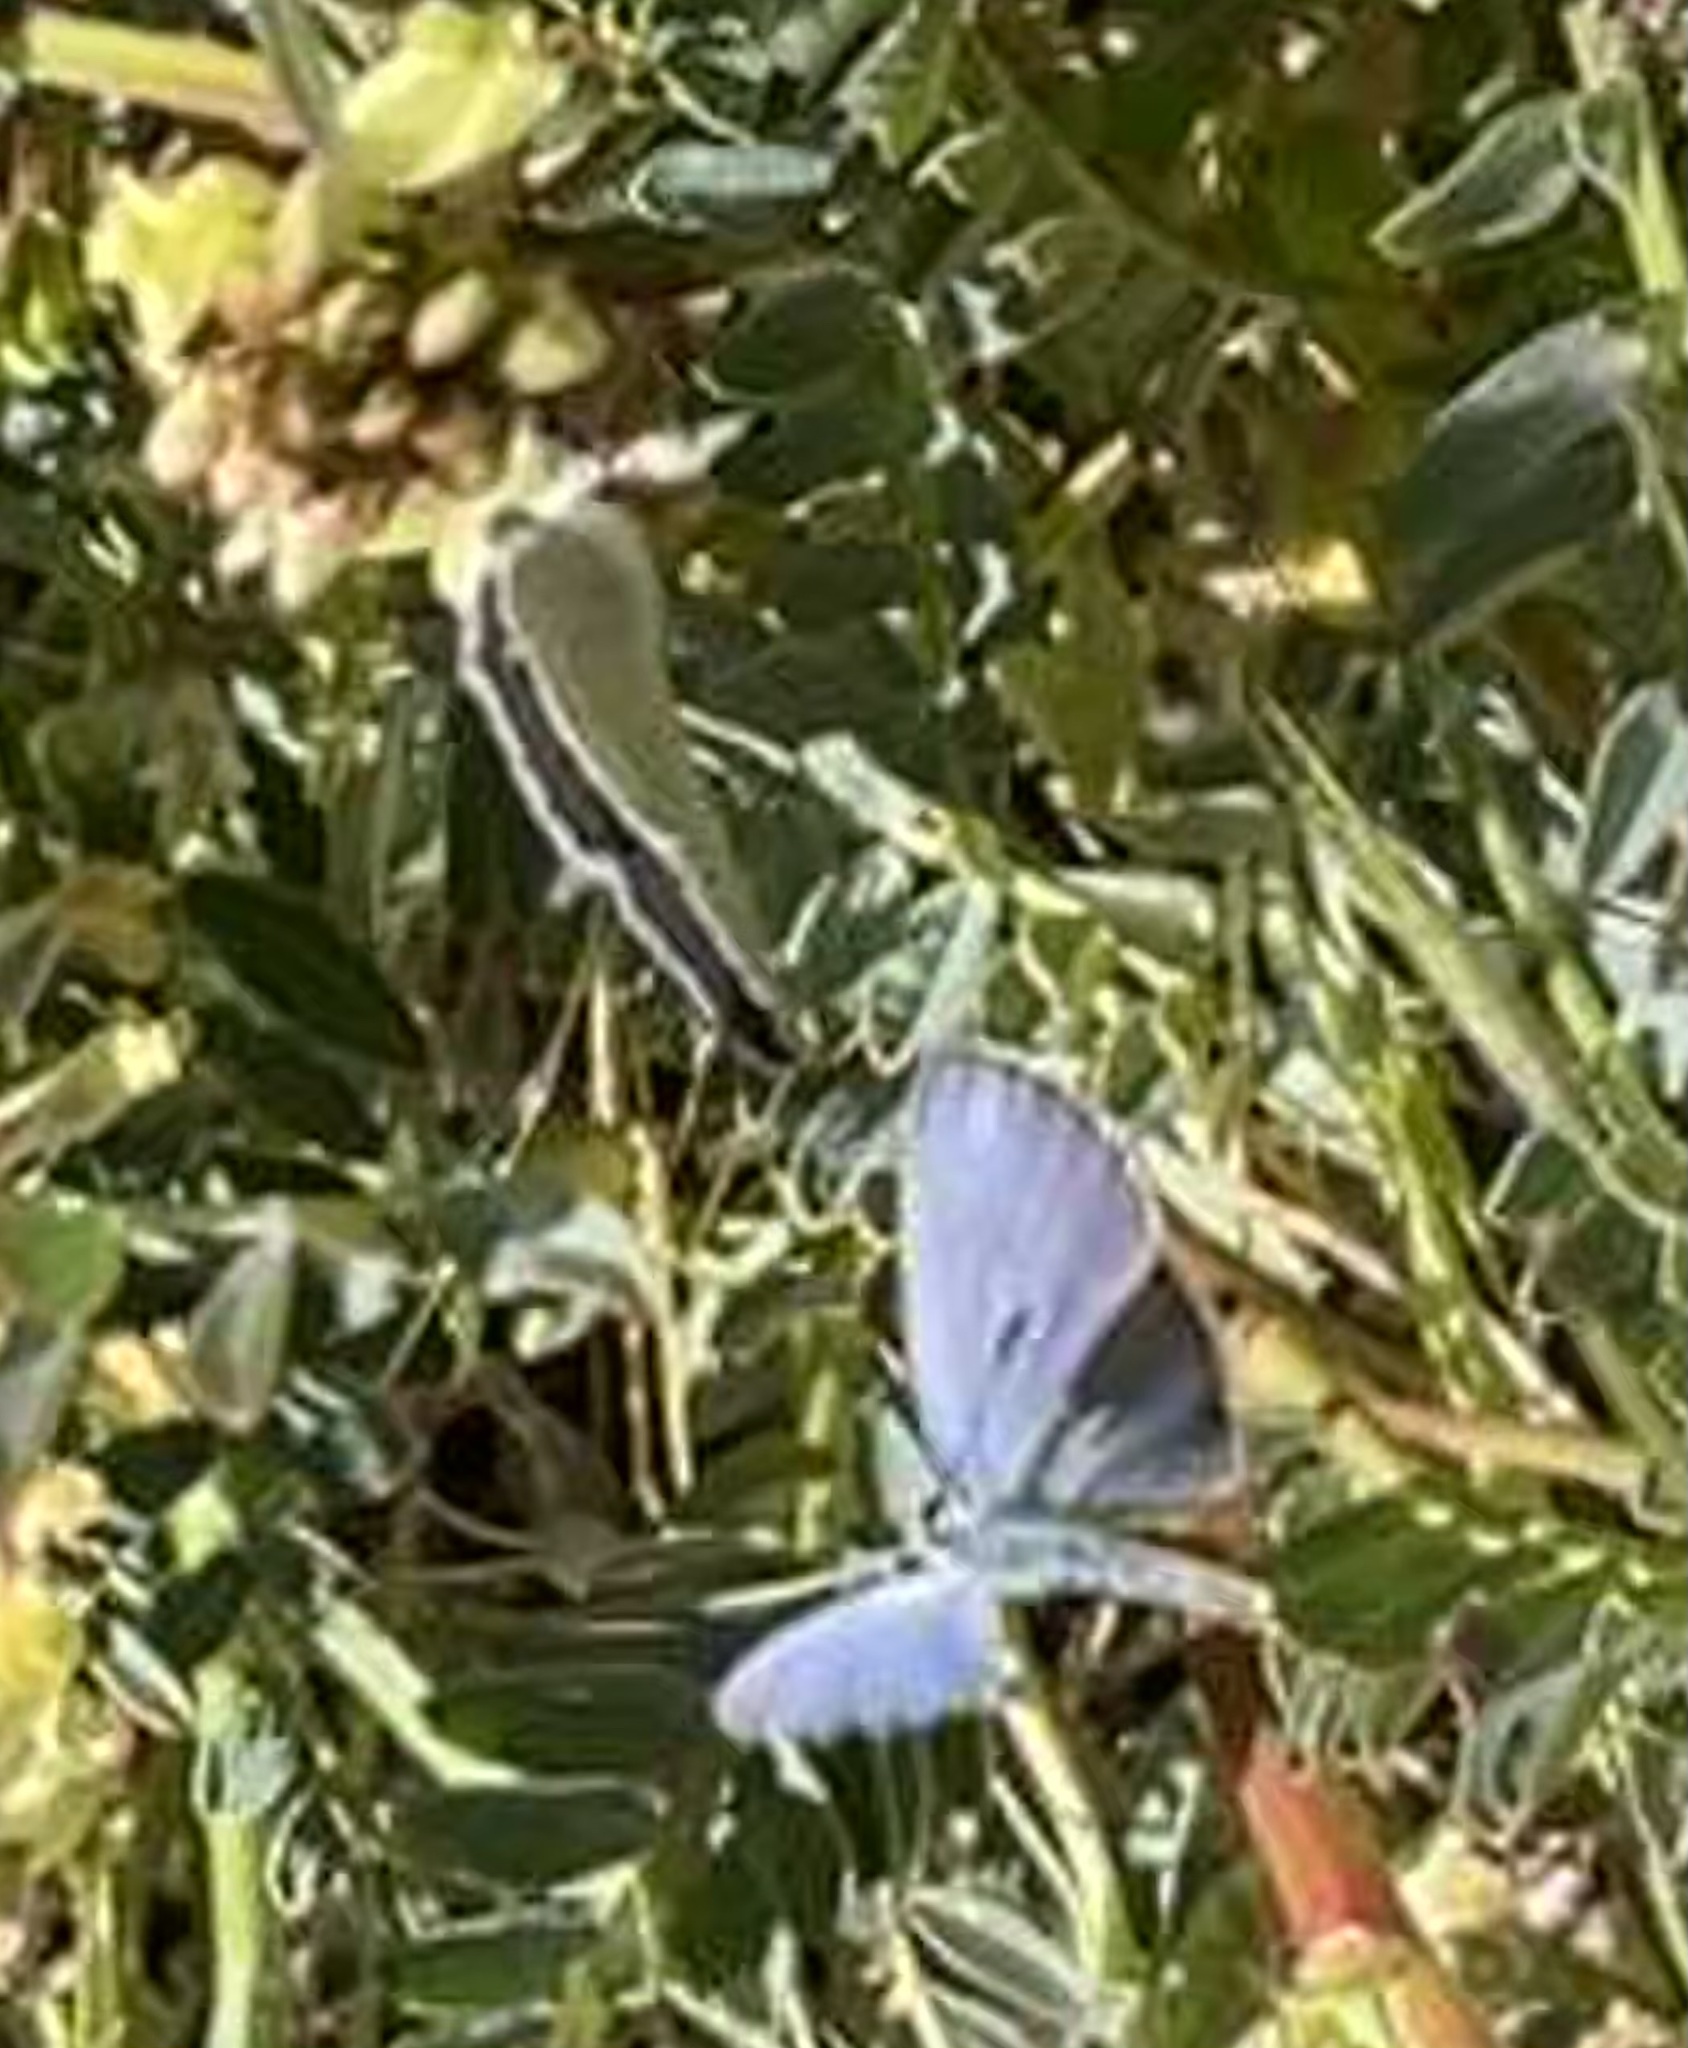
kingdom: Animalia
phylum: Arthropoda
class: Insecta
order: Lepidoptera
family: Lycaenidae
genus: Elkalyce
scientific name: Elkalyce amyntula
